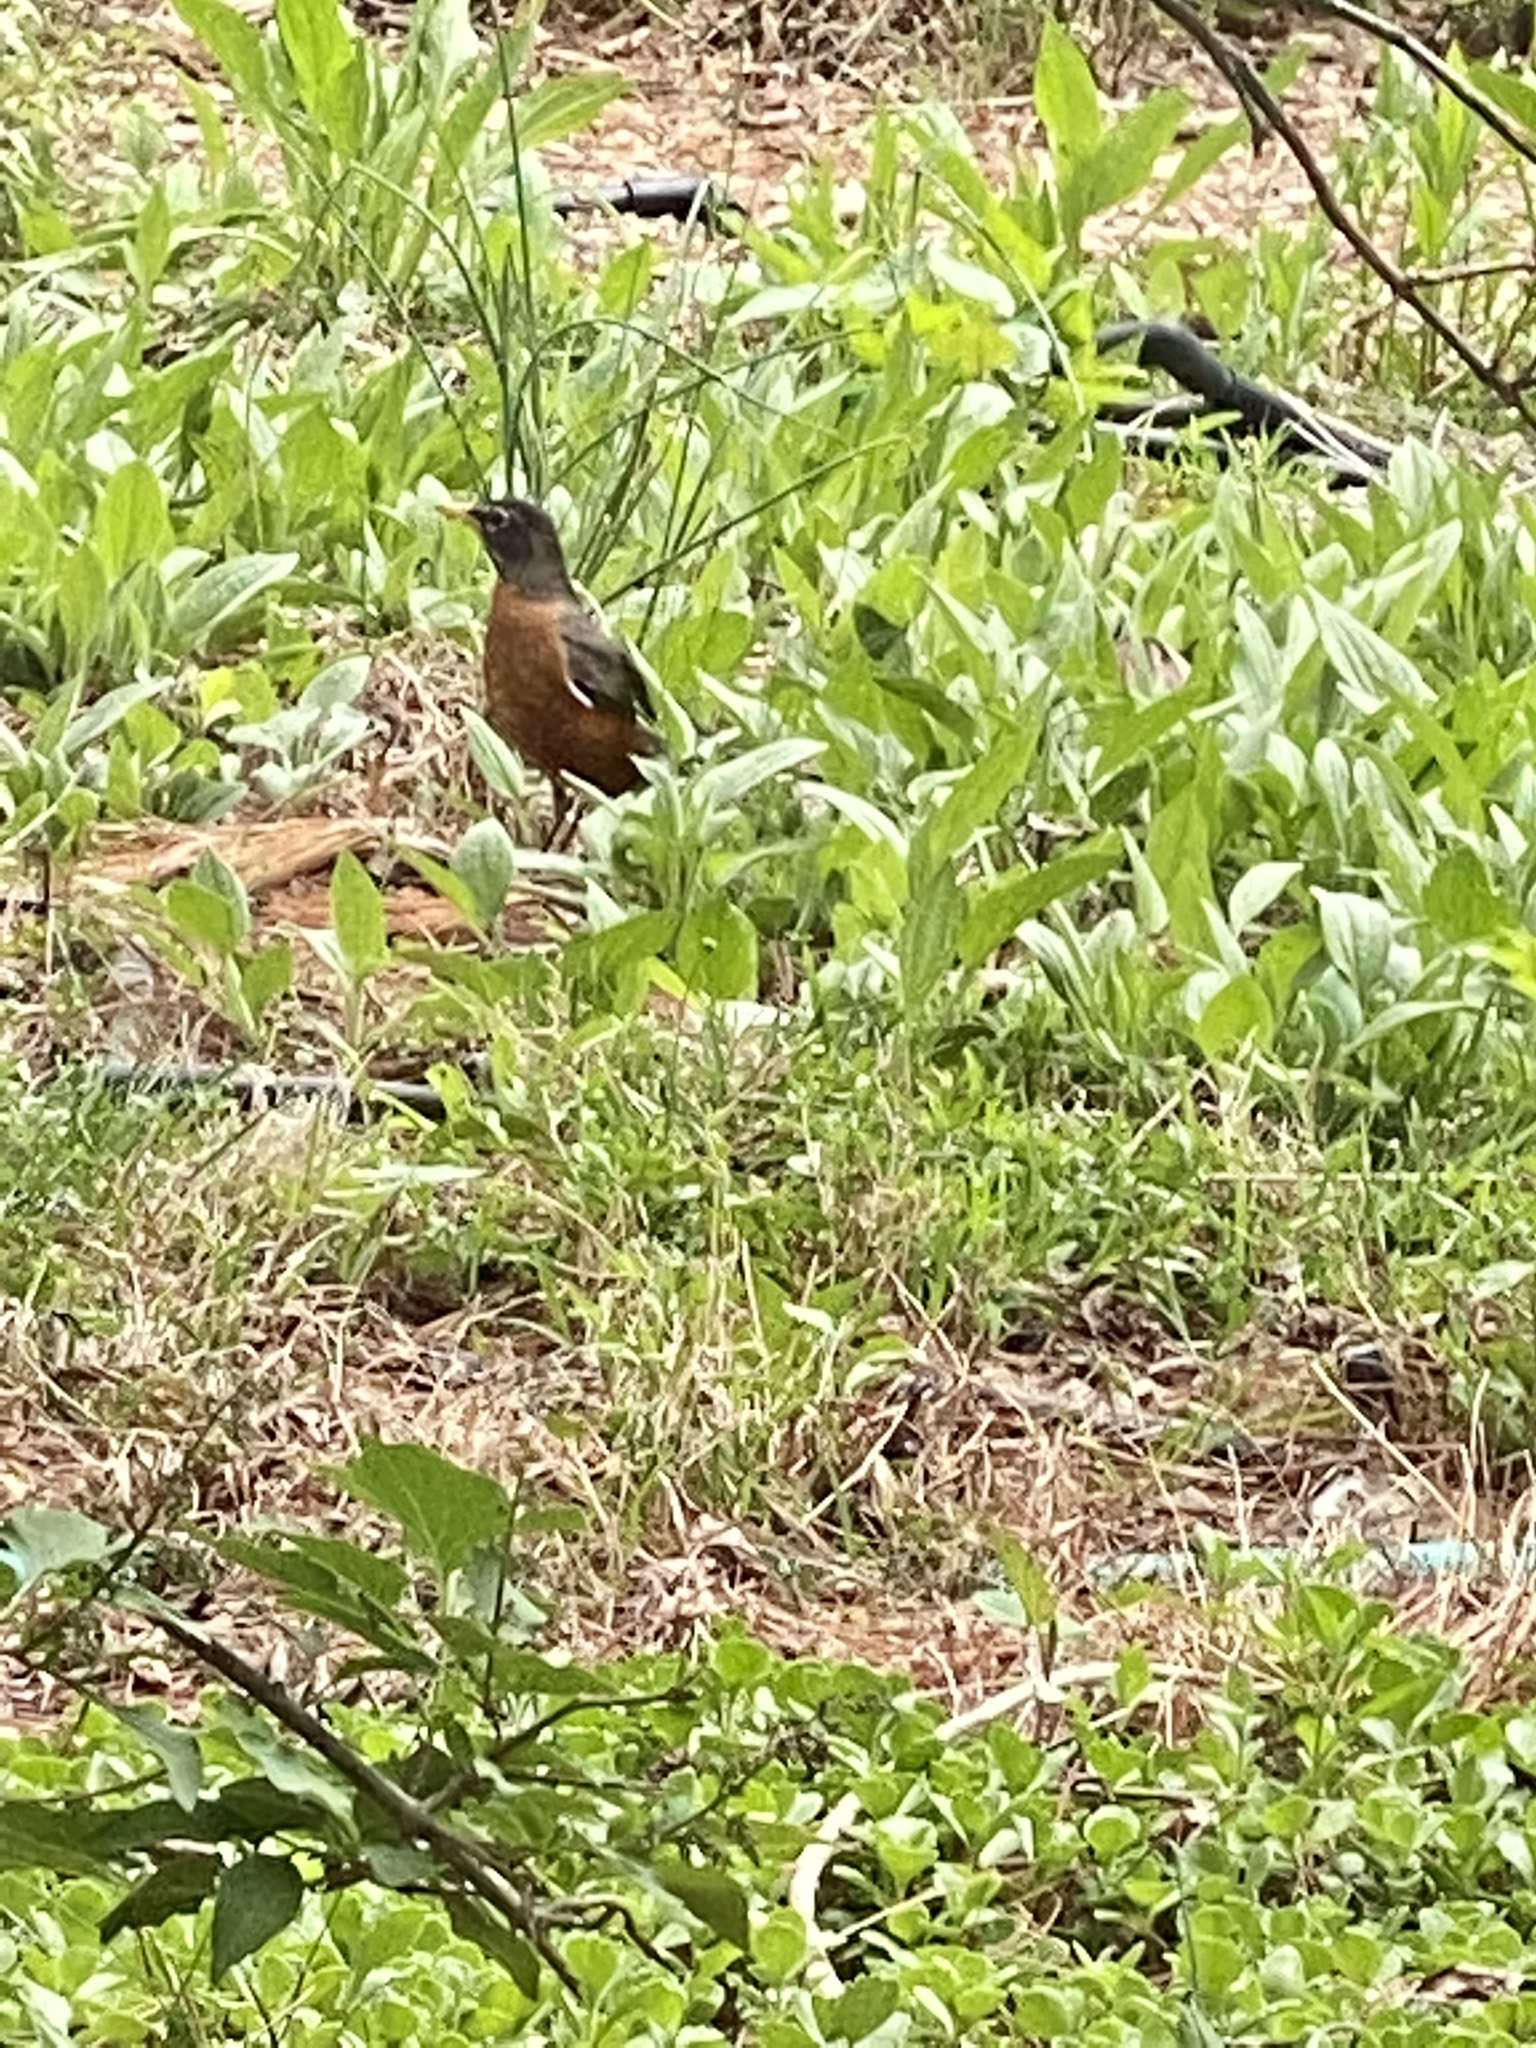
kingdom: Animalia
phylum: Chordata
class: Aves
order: Passeriformes
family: Turdidae
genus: Turdus
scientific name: Turdus migratorius
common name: American robin
